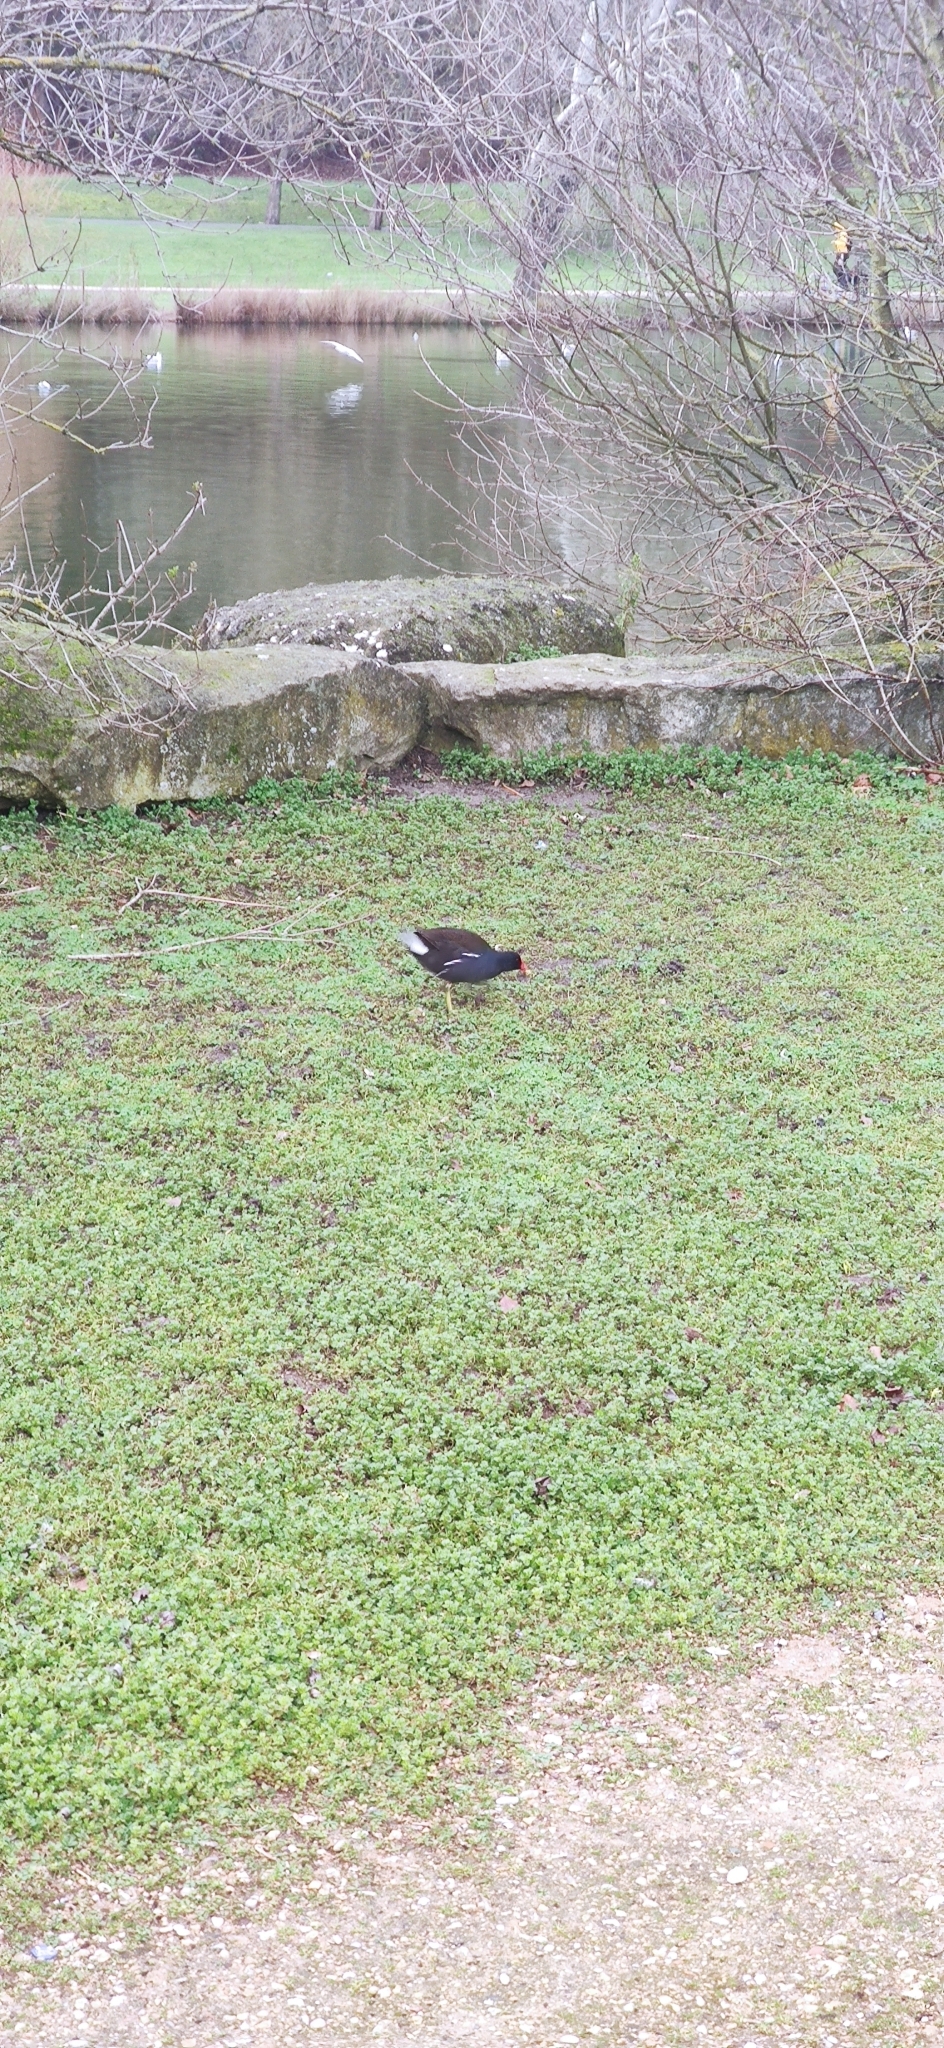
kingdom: Animalia
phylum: Chordata
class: Aves
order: Gruiformes
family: Rallidae
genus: Gallinula
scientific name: Gallinula chloropus
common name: Common moorhen
